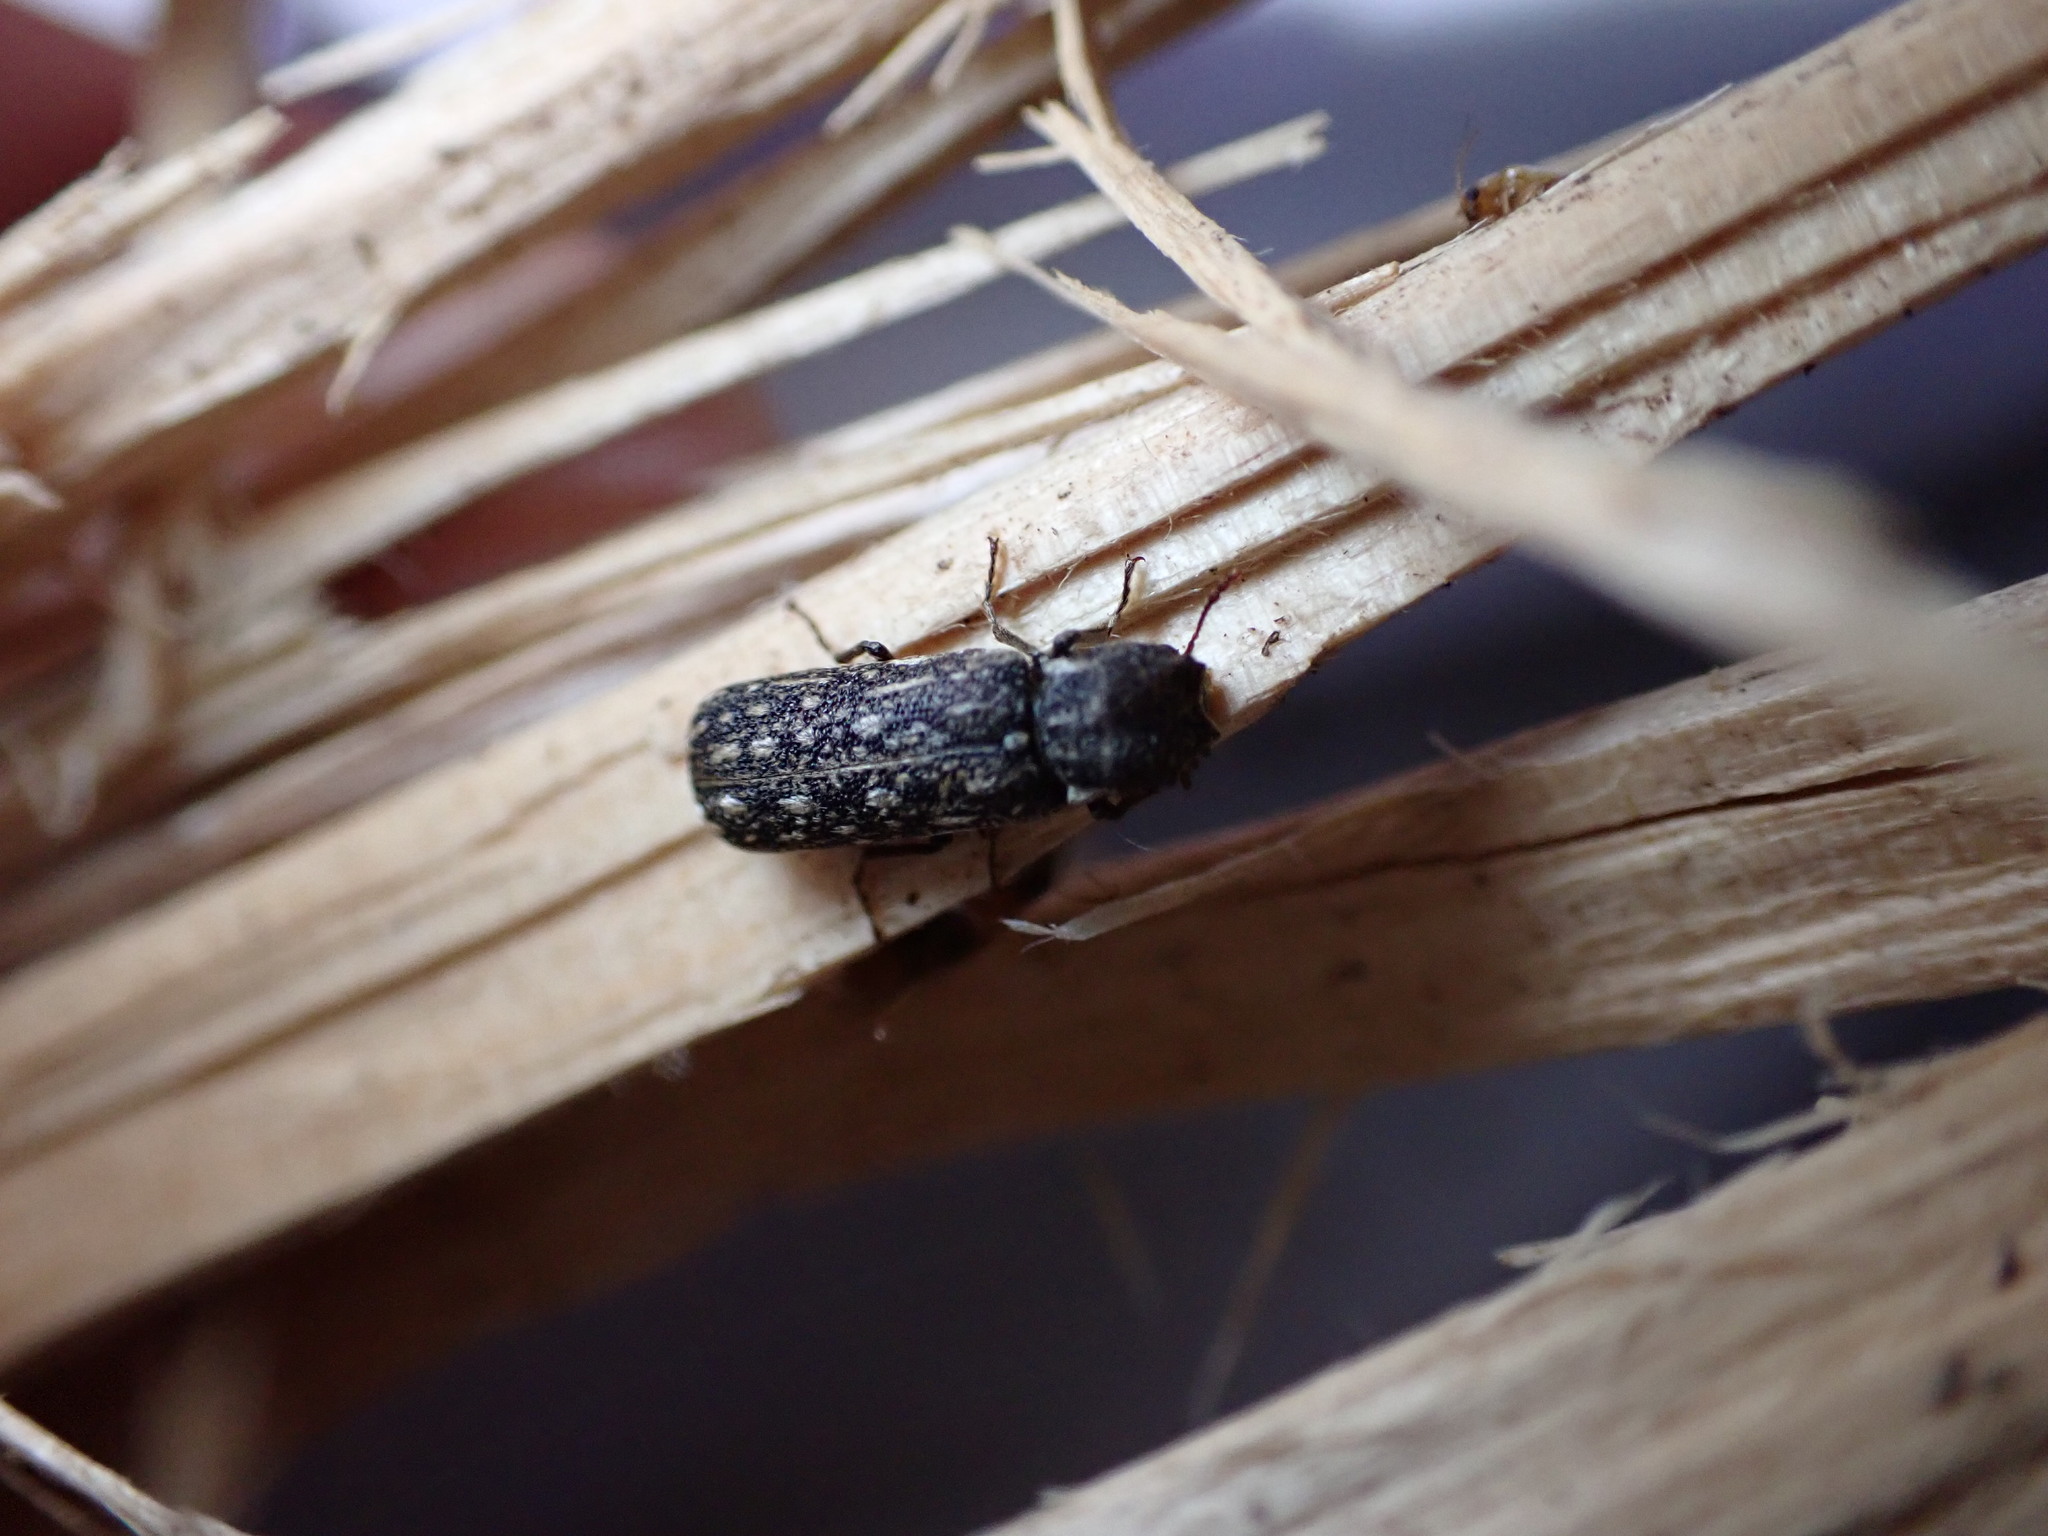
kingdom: Animalia
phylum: Arthropoda
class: Insecta
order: Coleoptera
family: Bostrichidae
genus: Lichenophanes
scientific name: Lichenophanes varius
